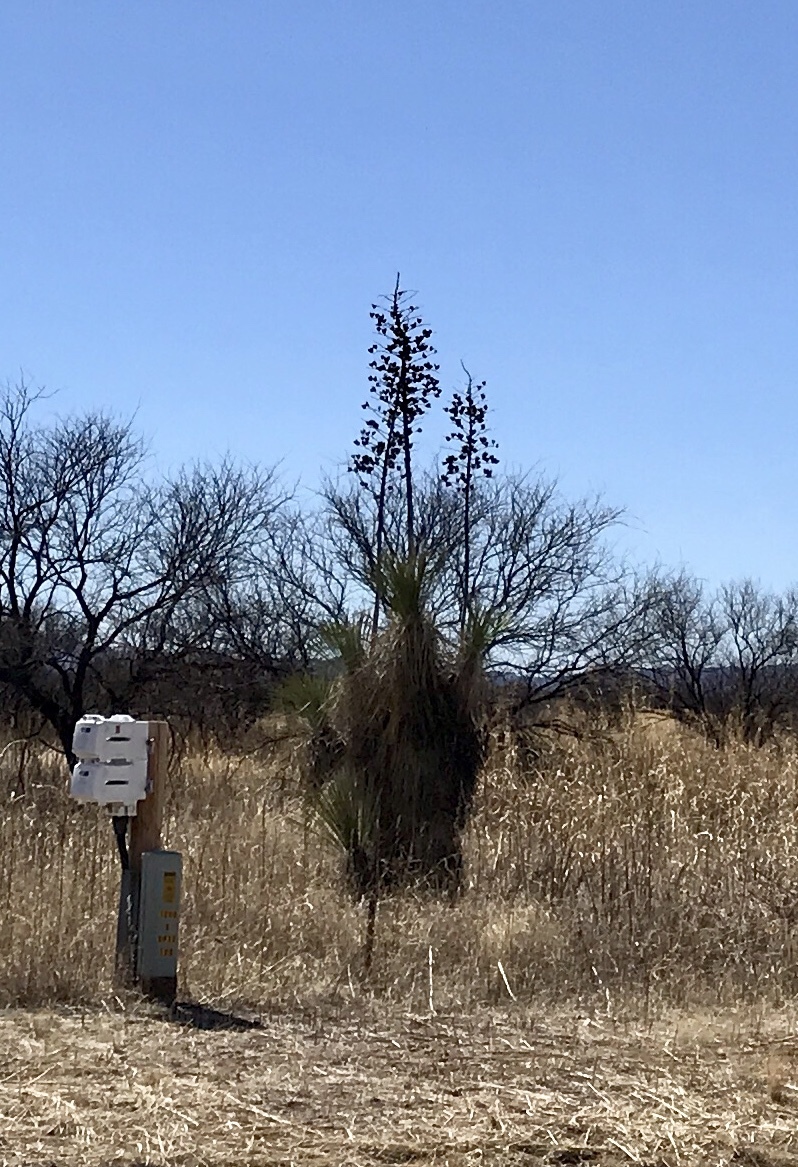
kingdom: Plantae
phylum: Tracheophyta
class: Liliopsida
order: Asparagales
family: Asparagaceae
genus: Yucca
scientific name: Yucca elata
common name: Palmella
